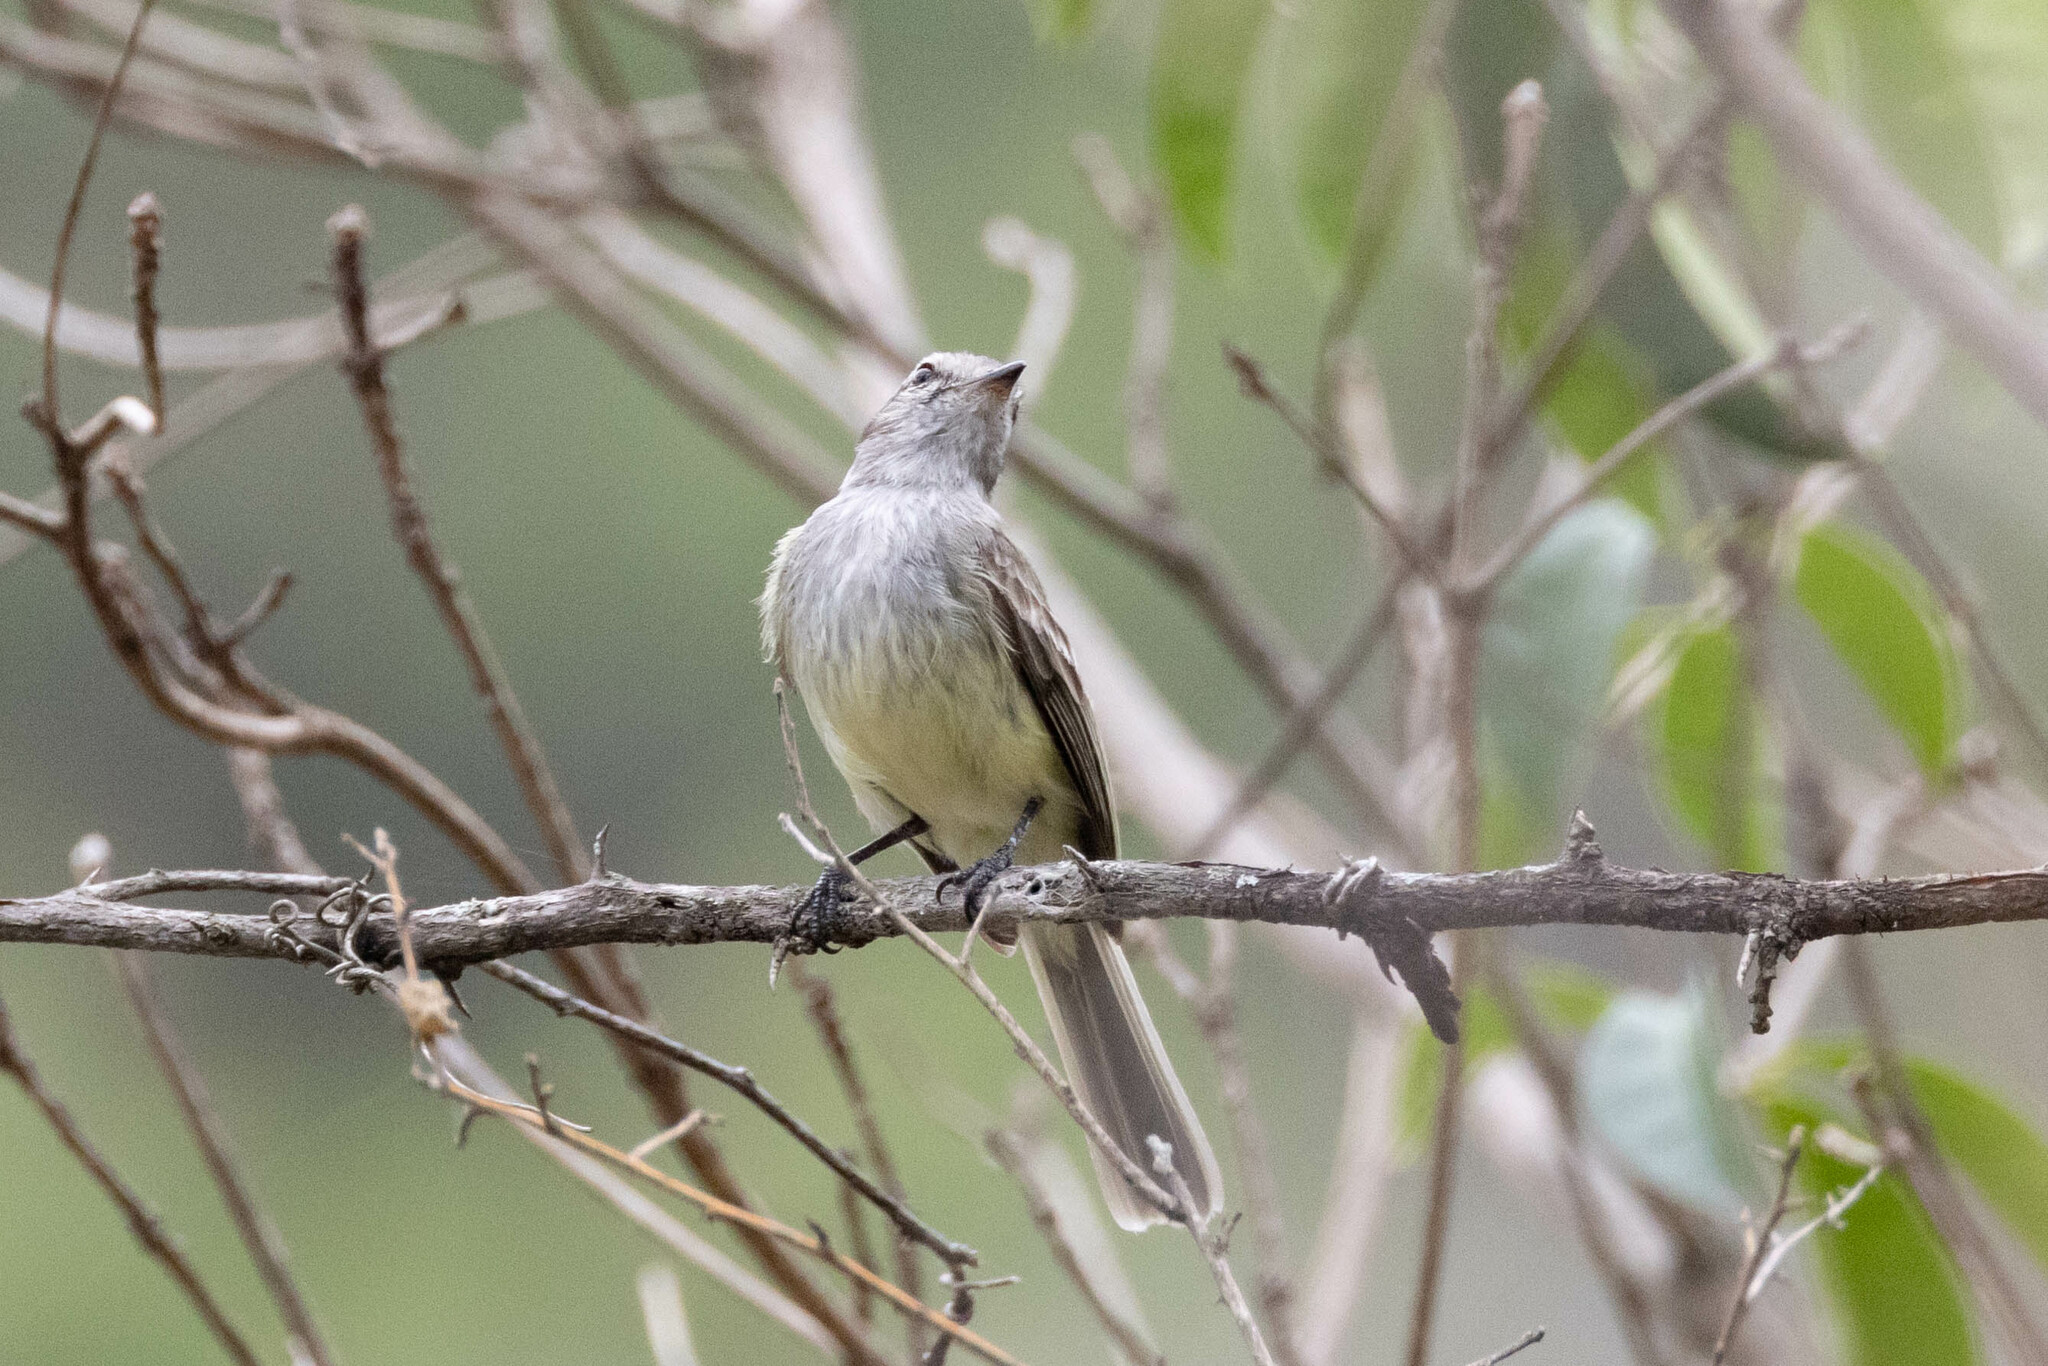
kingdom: Animalia
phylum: Chordata
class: Aves
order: Passeriformes
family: Tyrannidae
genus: Myiopagis
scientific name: Myiopagis subplacens
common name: Pacific elaenia
